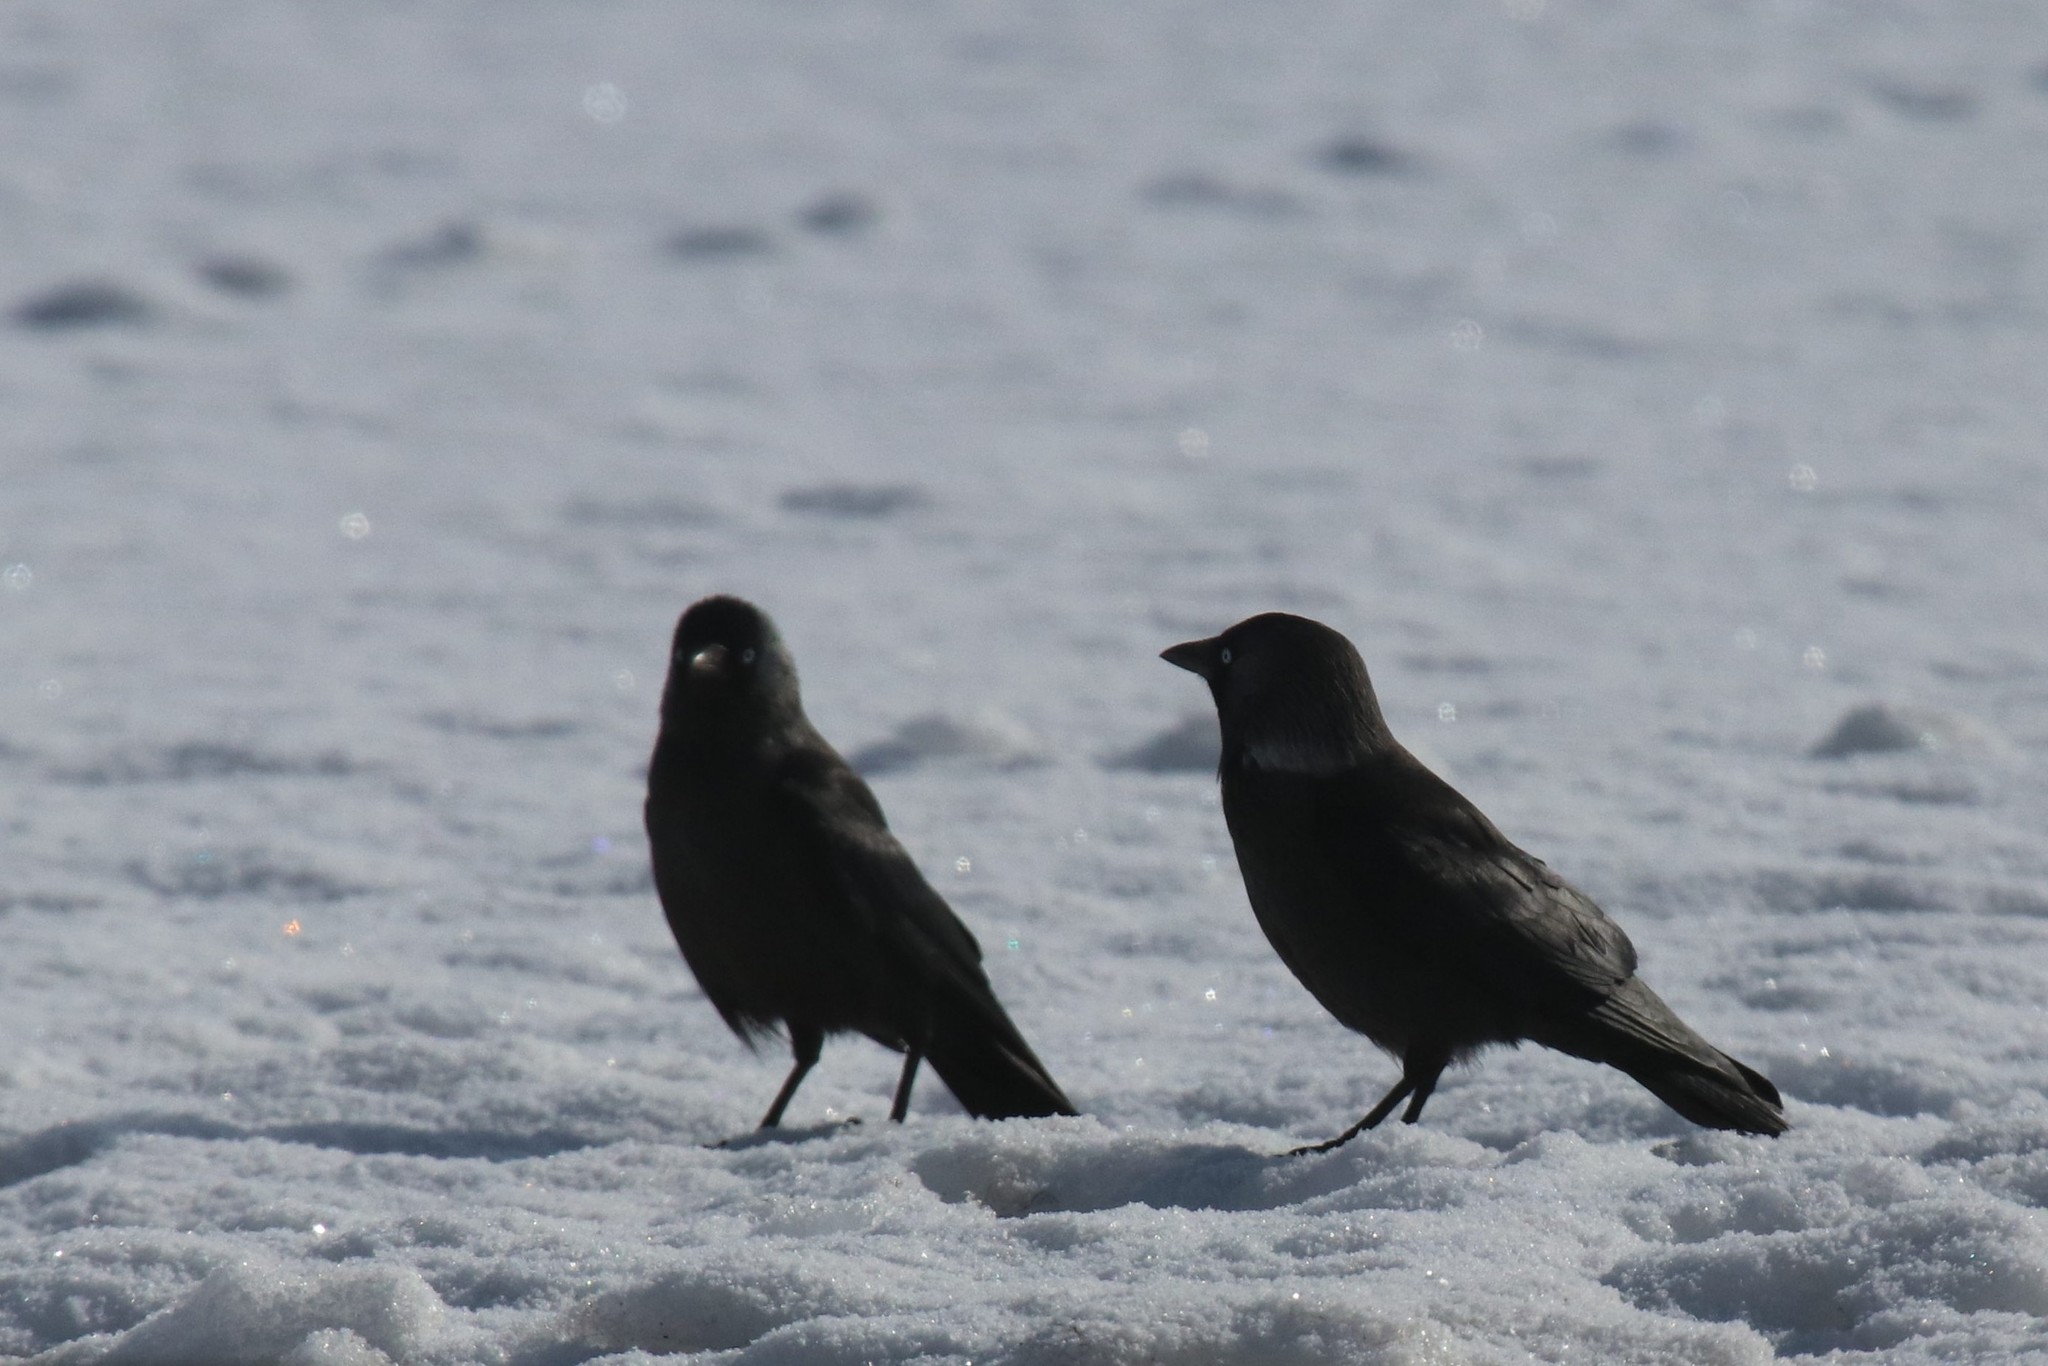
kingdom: Animalia
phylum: Chordata
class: Aves
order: Passeriformes
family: Corvidae
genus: Coloeus
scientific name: Coloeus monedula
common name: Western jackdaw
